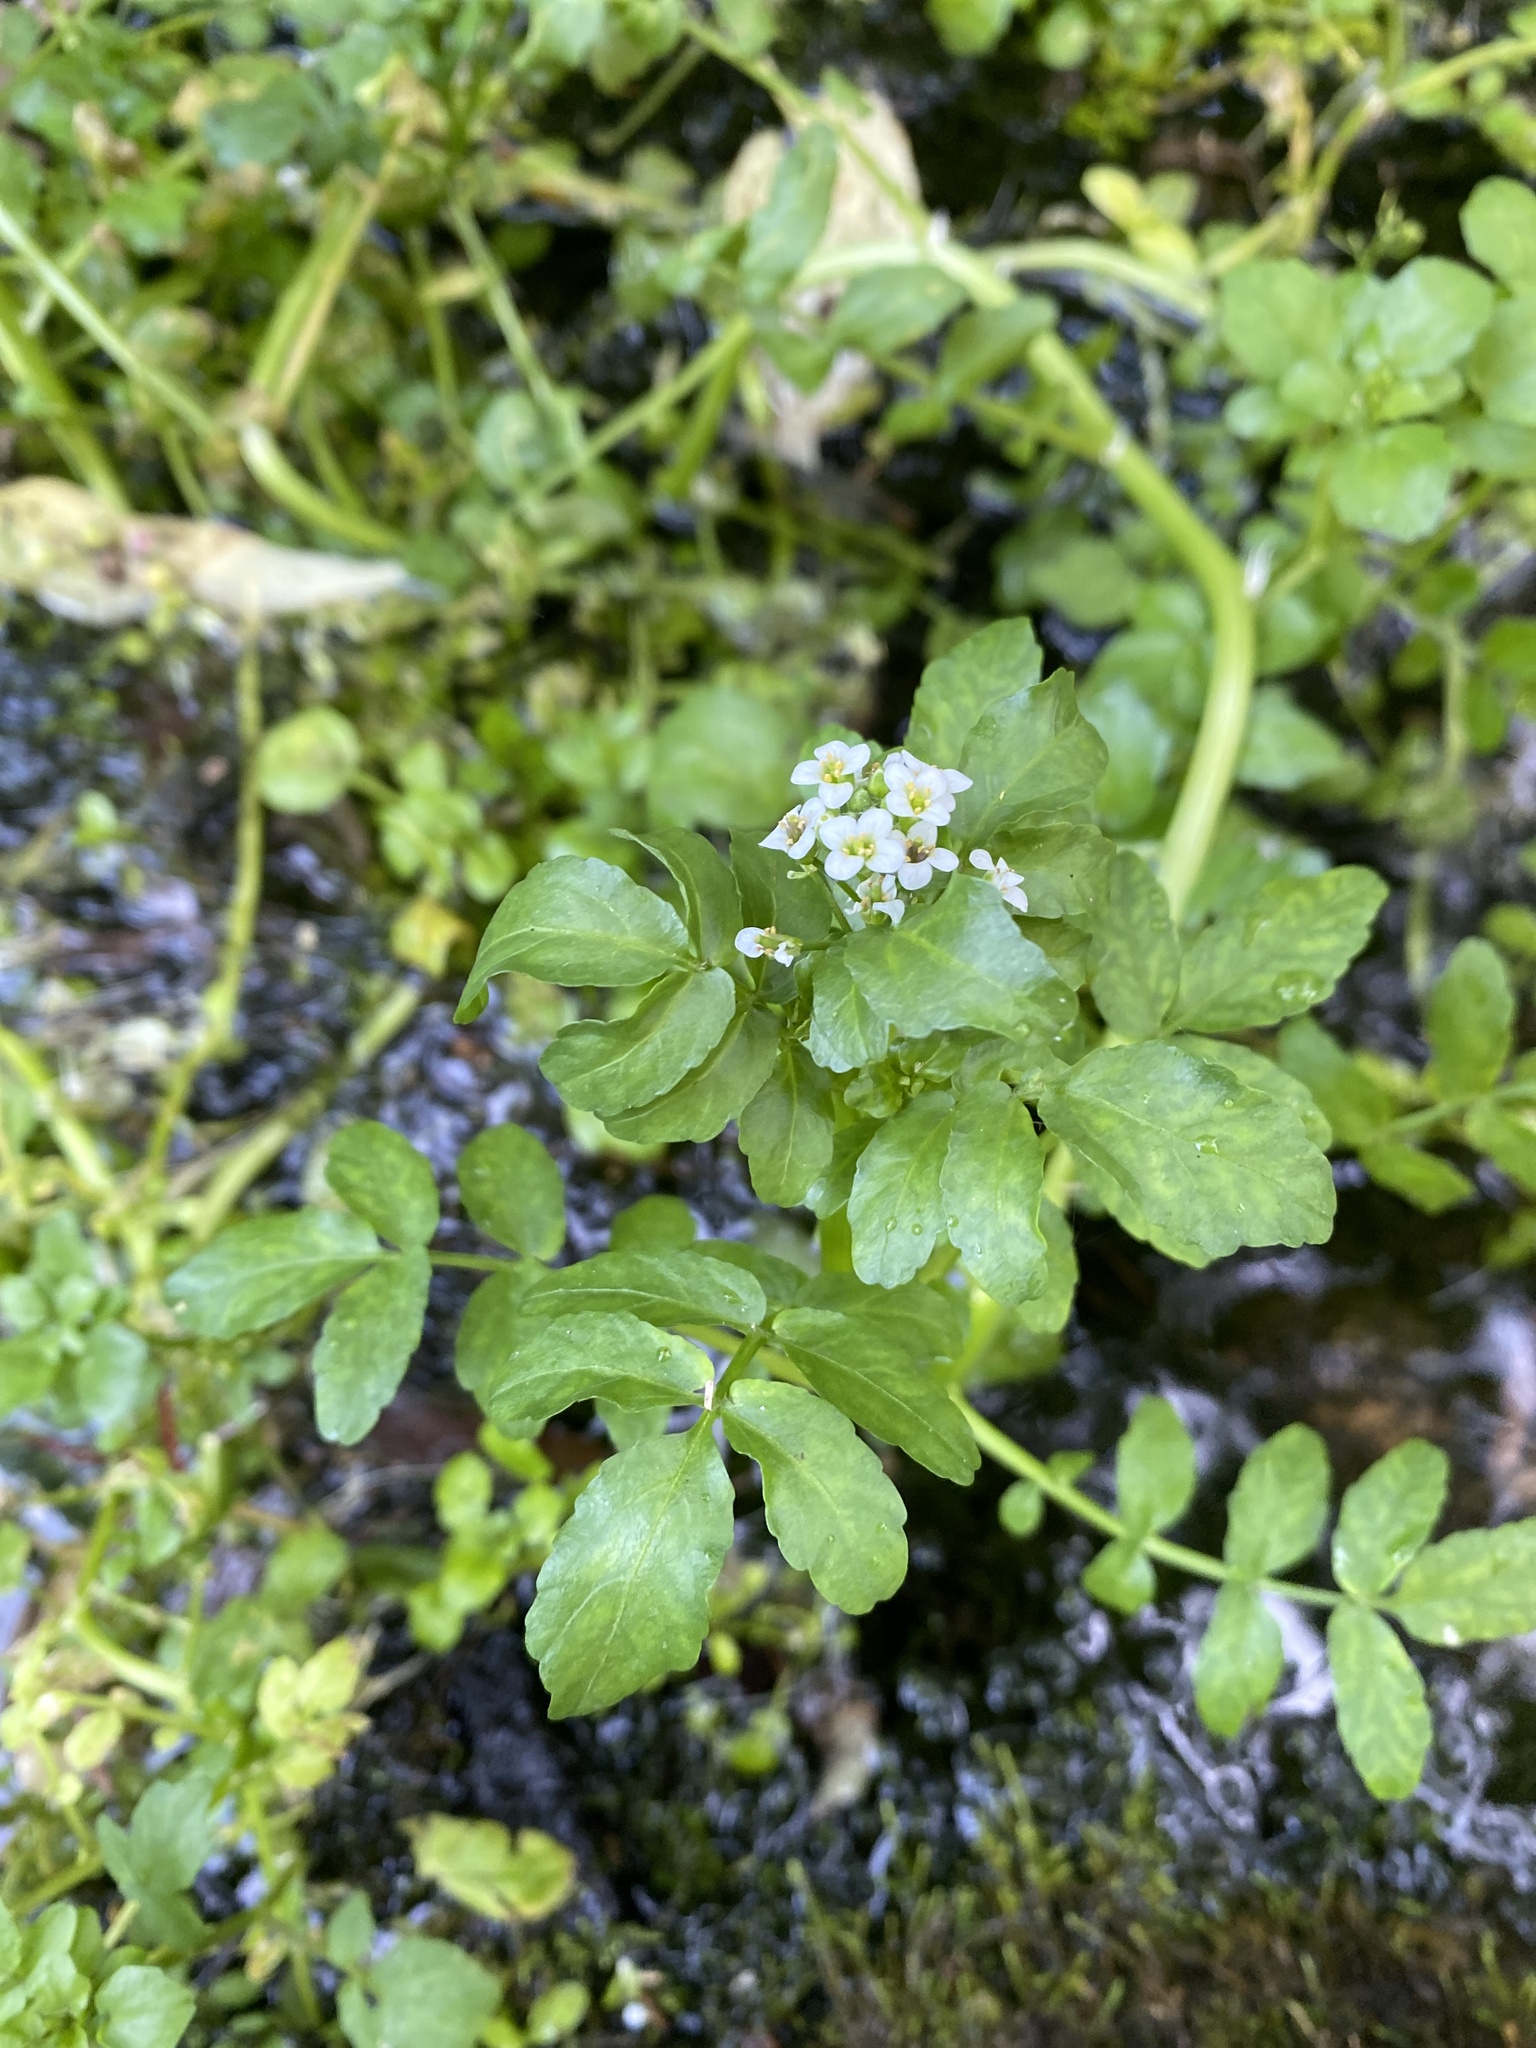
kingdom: Plantae
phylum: Tracheophyta
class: Magnoliopsida
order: Brassicales
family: Brassicaceae
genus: Nasturtium
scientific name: Nasturtium officinale
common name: Watercress
